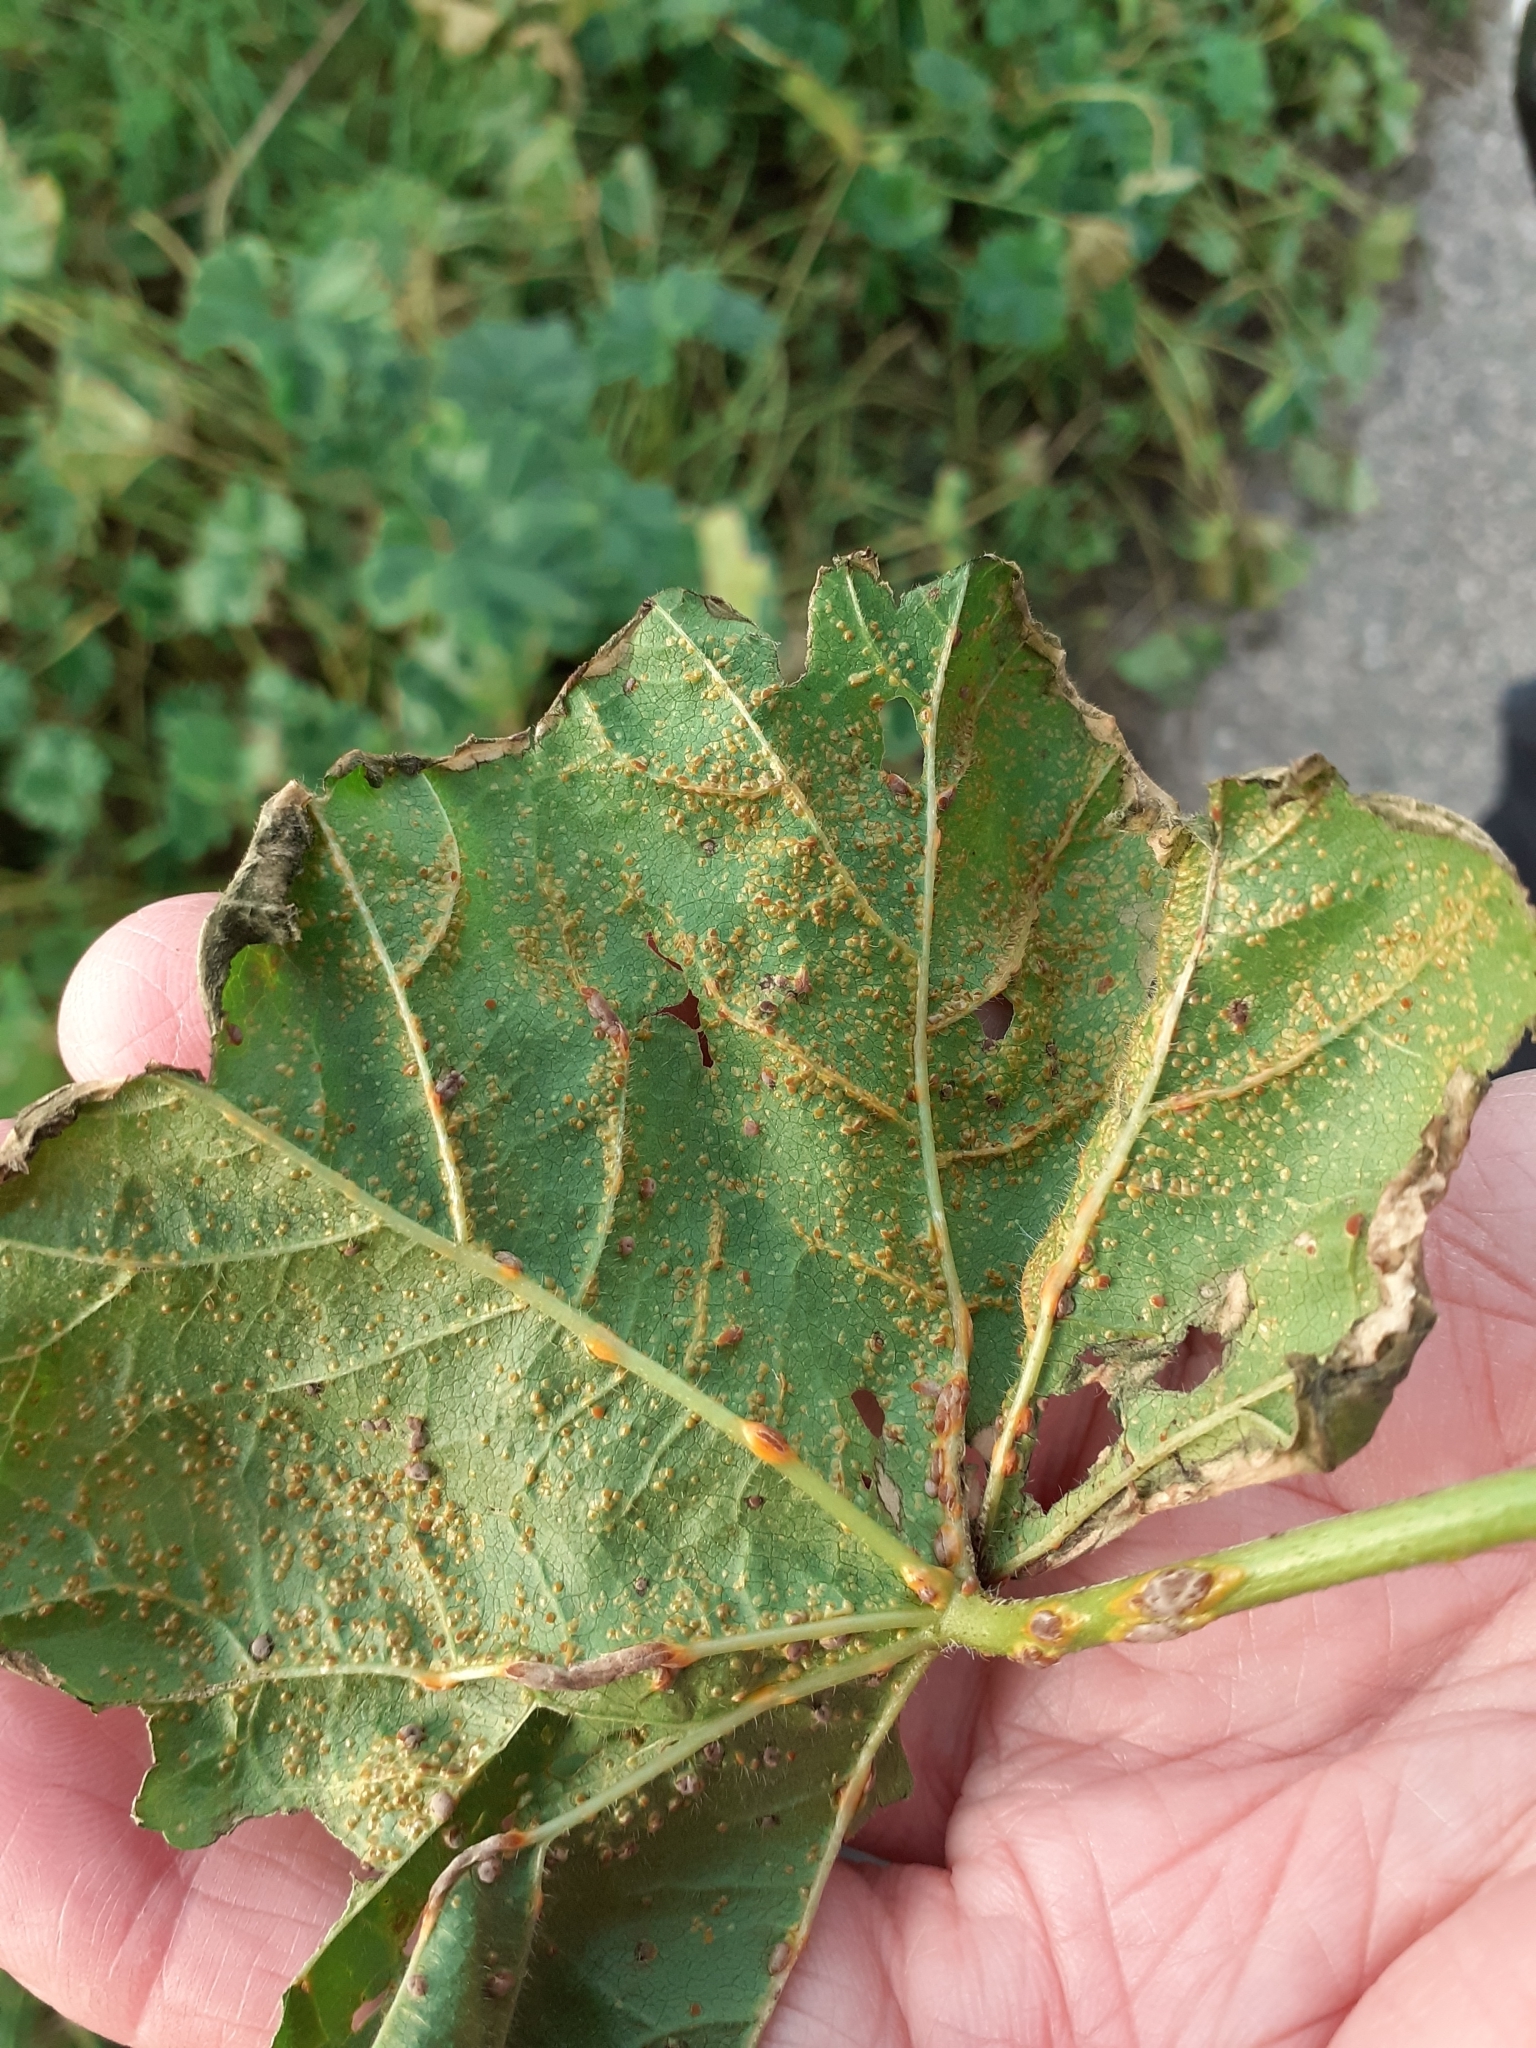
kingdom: Fungi
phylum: Basidiomycota
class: Pucciniomycetes
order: Pucciniales
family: Pucciniaceae
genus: Puccinia
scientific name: Puccinia malvacearum
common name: Hollyhock rust
